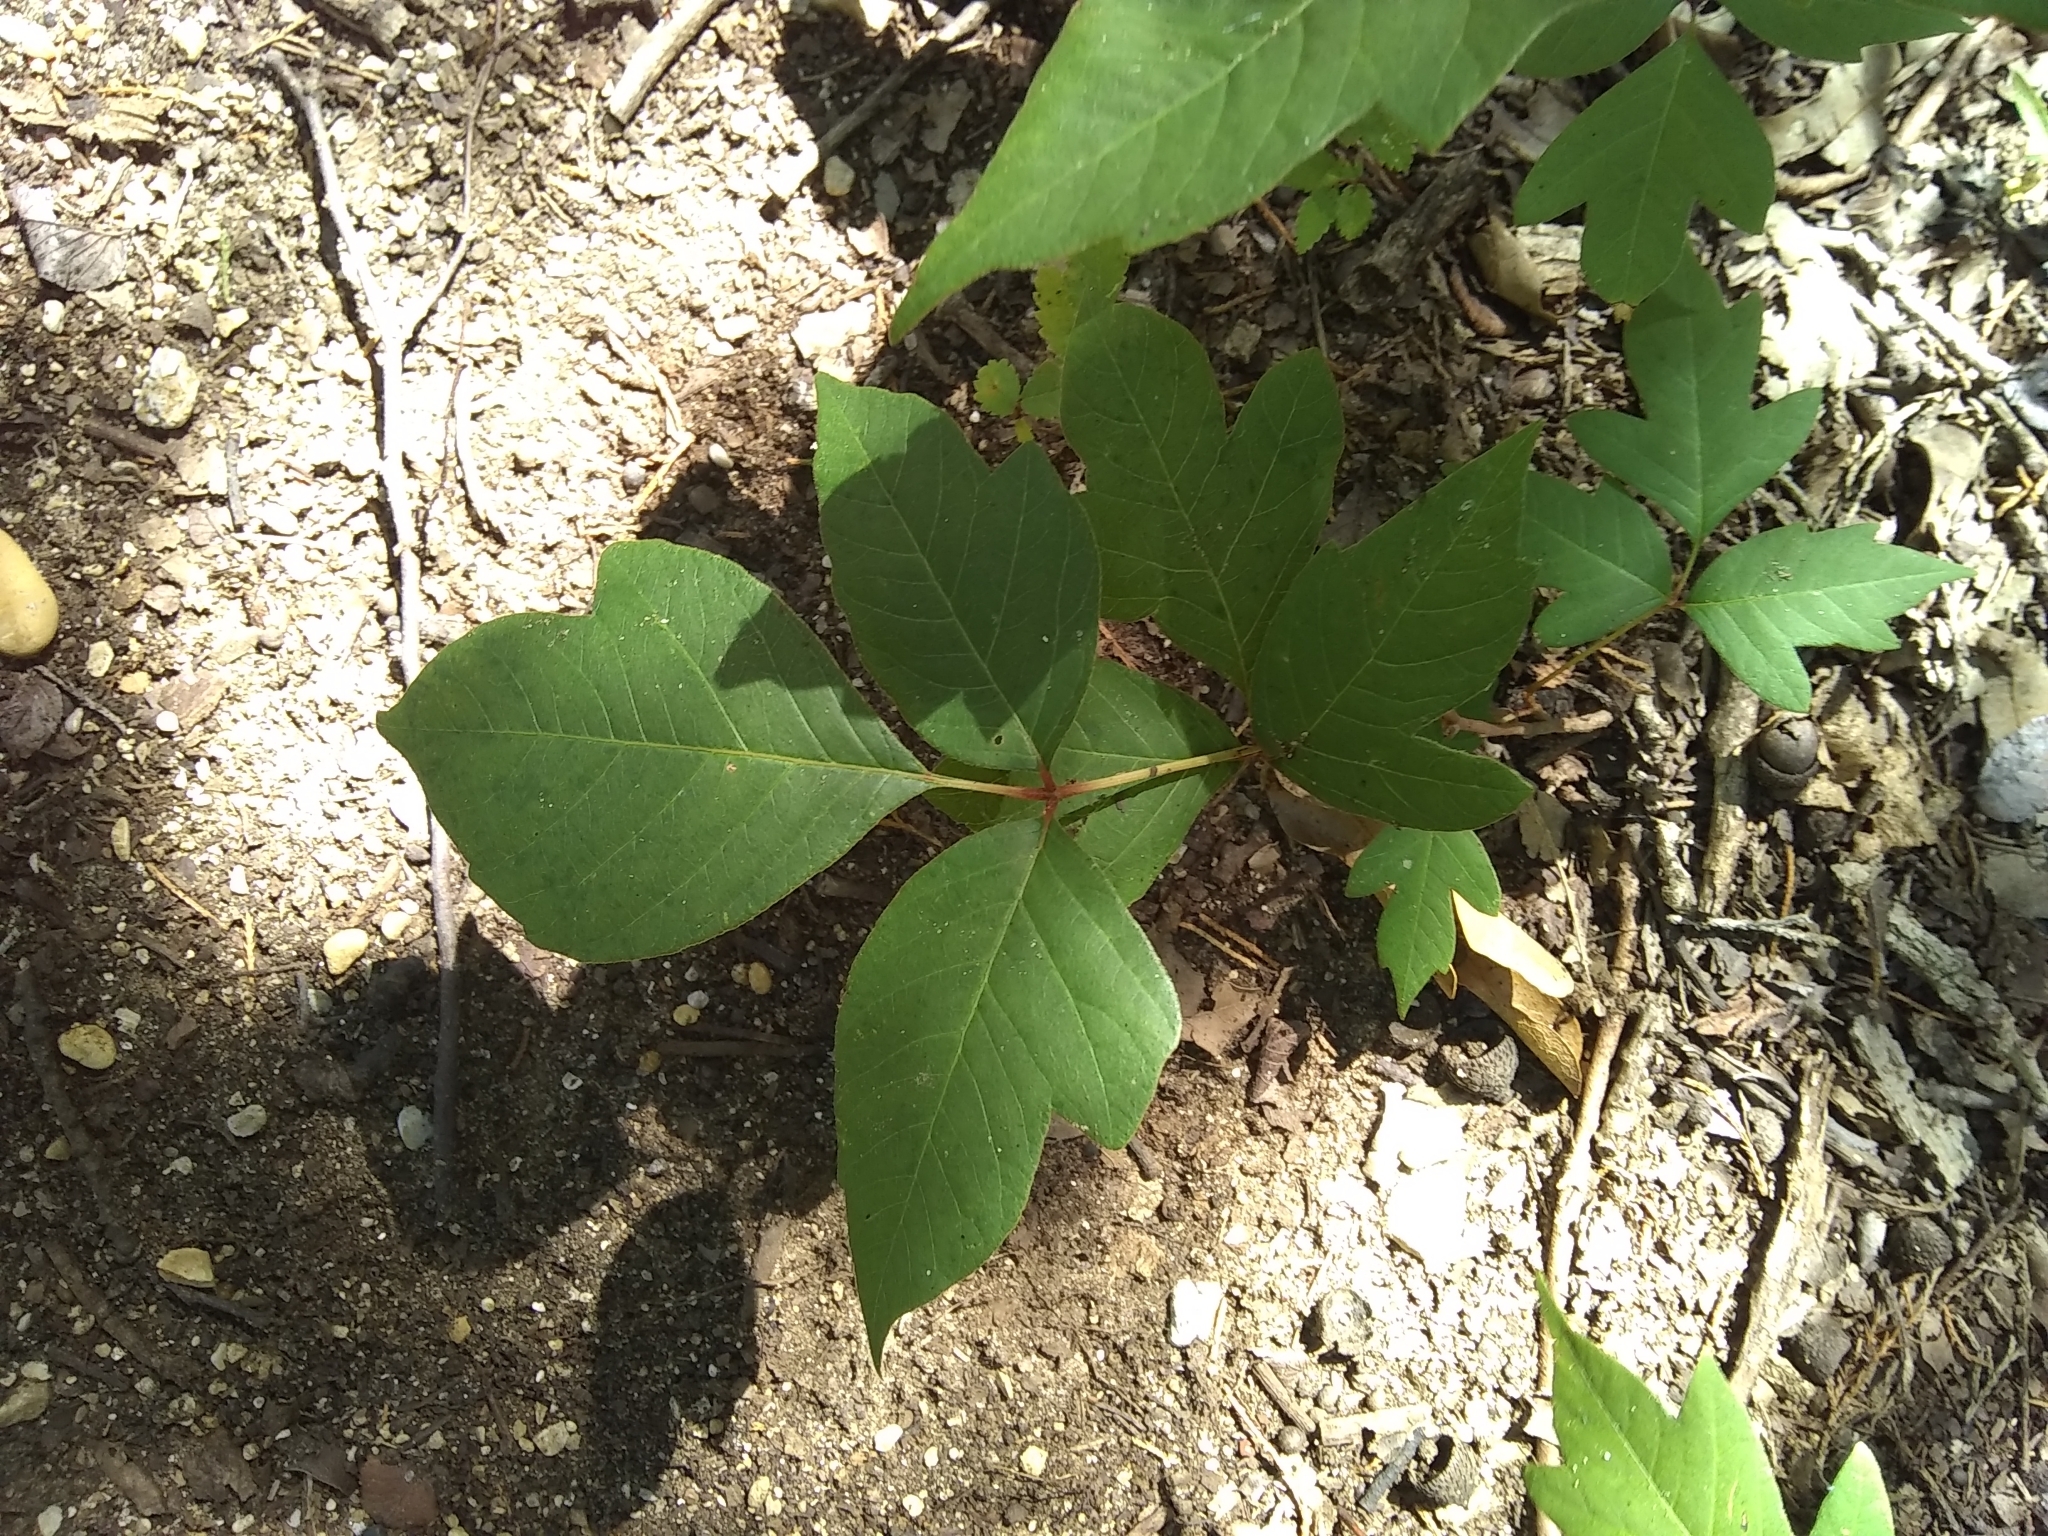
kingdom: Plantae
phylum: Tracheophyta
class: Magnoliopsida
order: Sapindales
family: Anacardiaceae
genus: Toxicodendron
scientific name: Toxicodendron radicans
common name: Poison ivy
